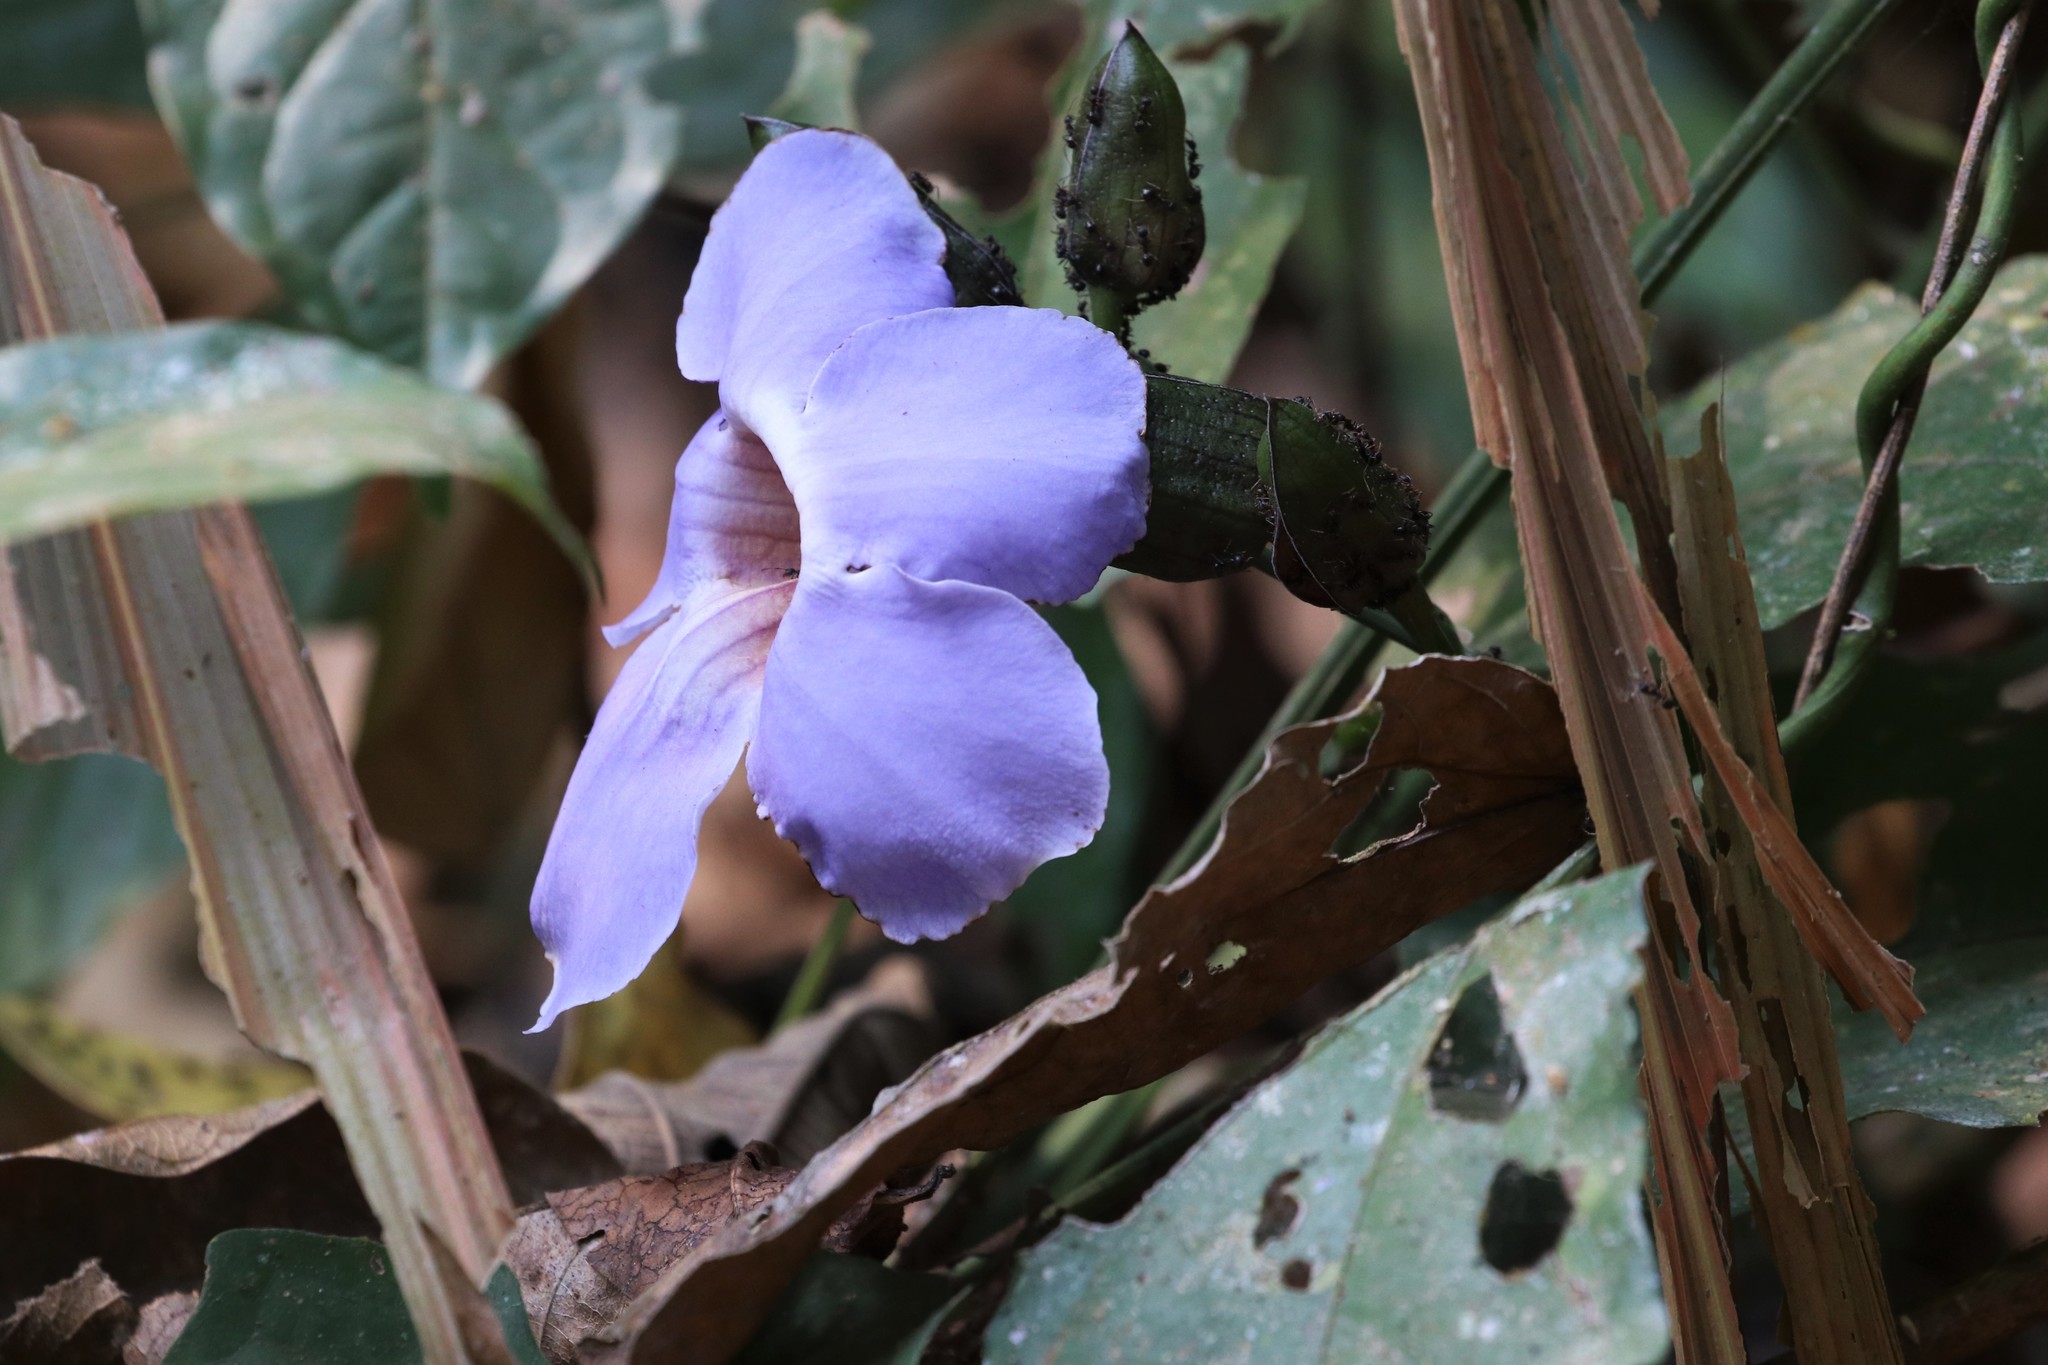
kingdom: Plantae
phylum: Tracheophyta
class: Magnoliopsida
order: Lamiales
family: Acanthaceae
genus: Thunbergia
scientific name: Thunbergia grandiflora
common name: Bengal trumpet
